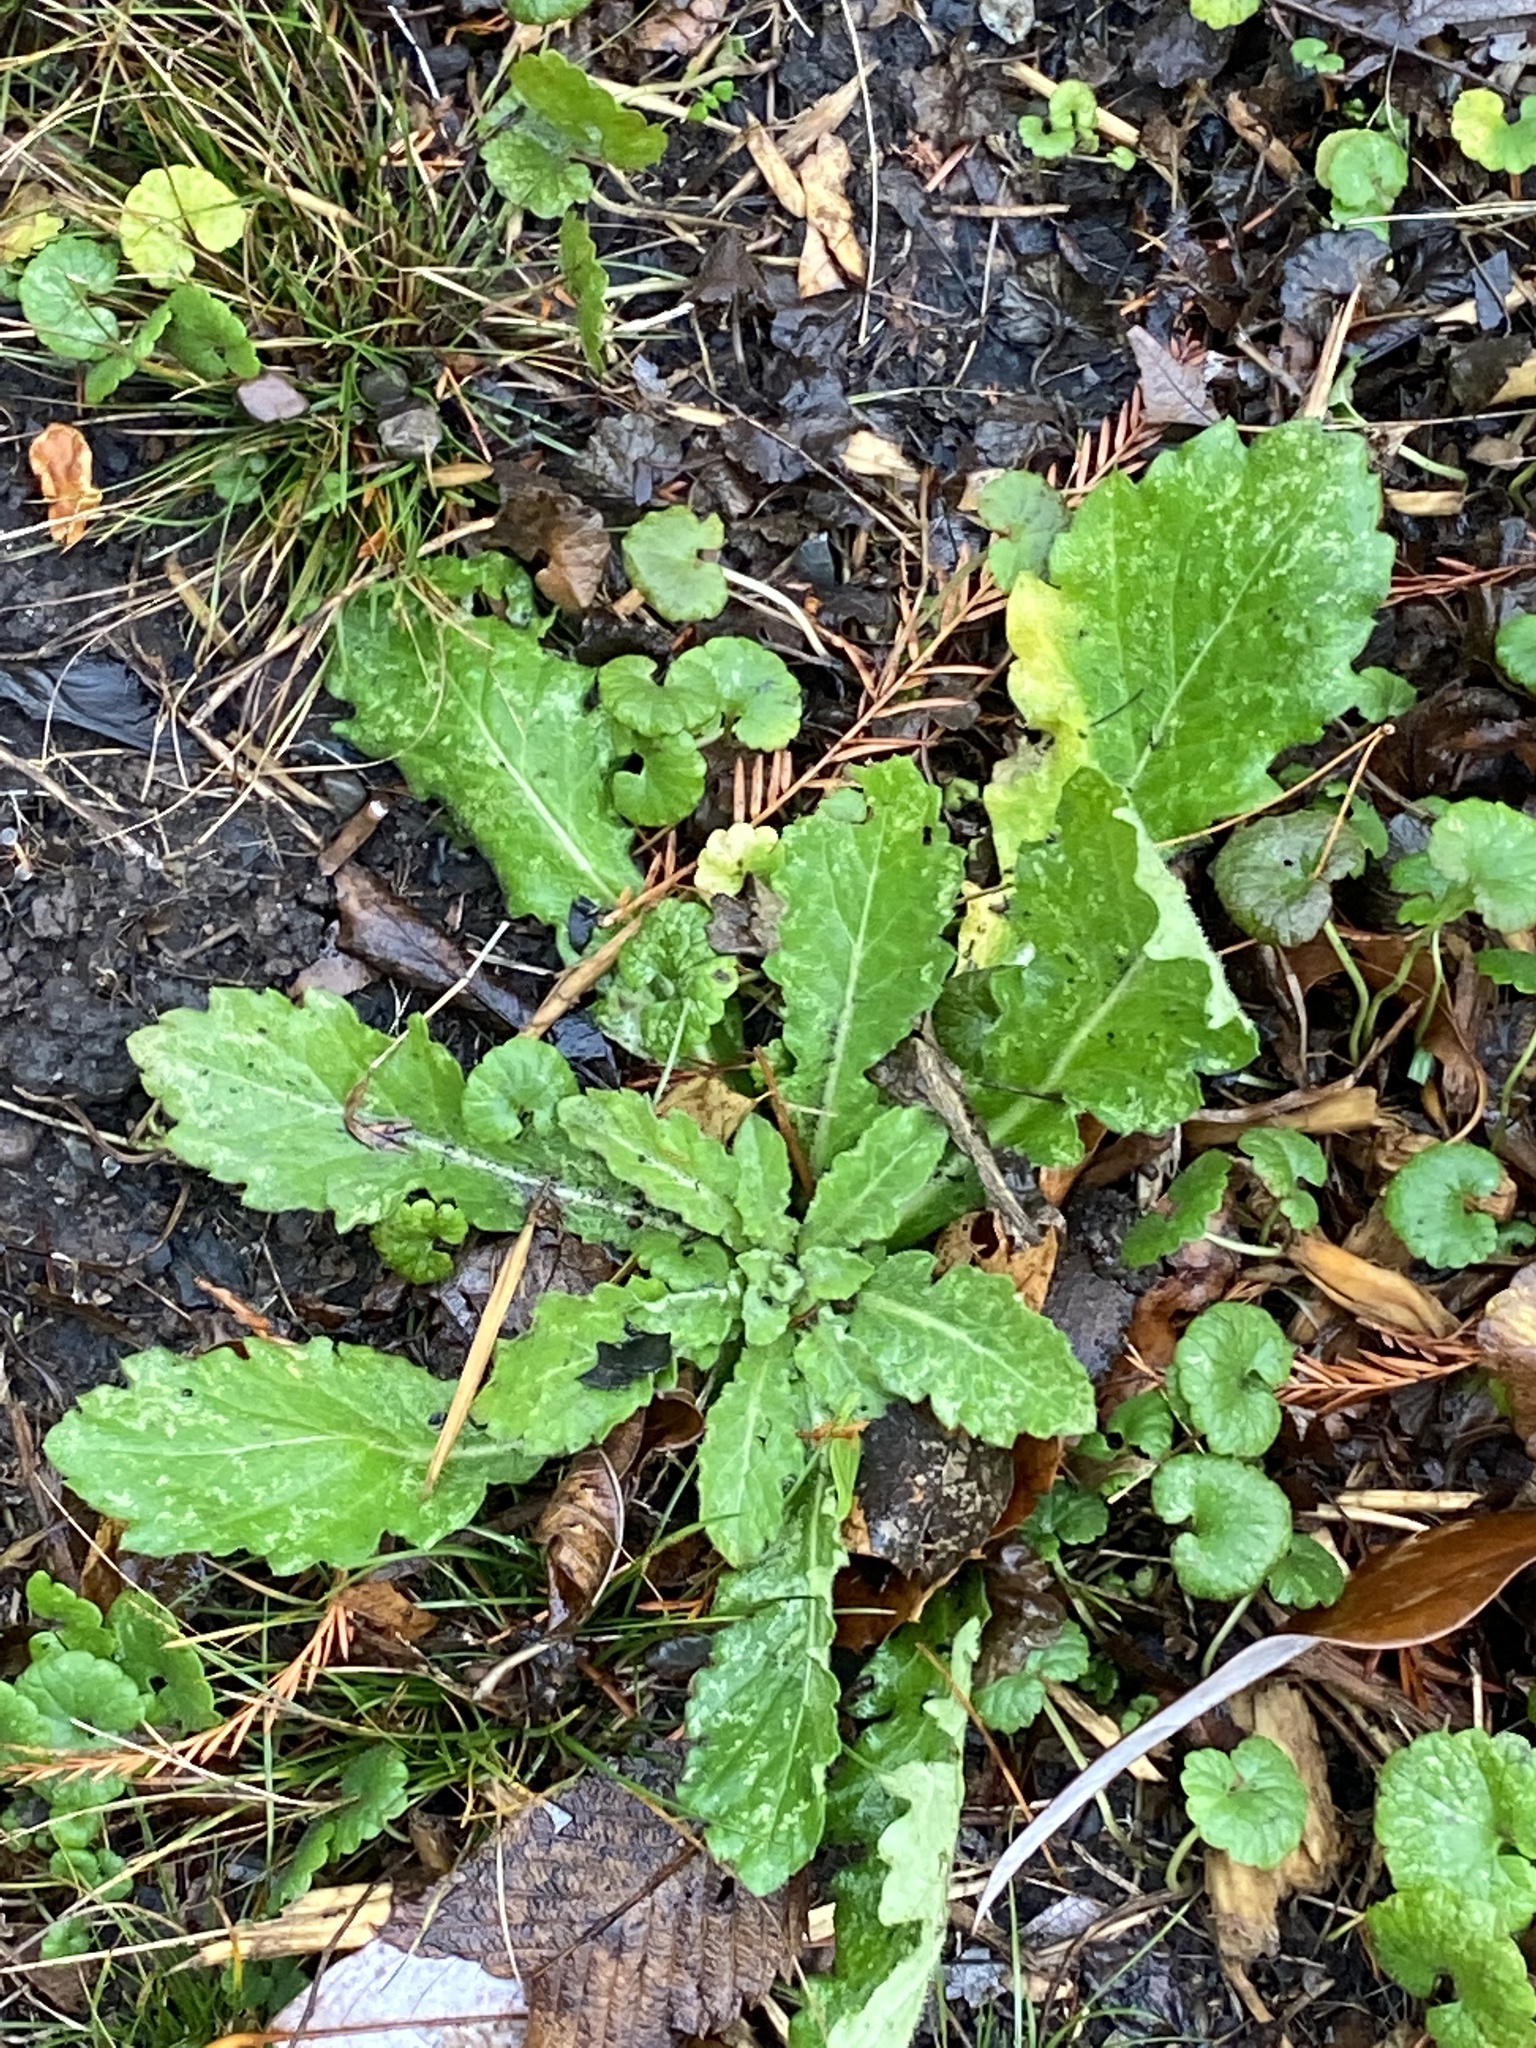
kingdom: Plantae
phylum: Tracheophyta
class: Magnoliopsida
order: Asterales
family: Asteraceae
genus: Erigeron
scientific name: Erigeron annuus
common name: Tall fleabane
